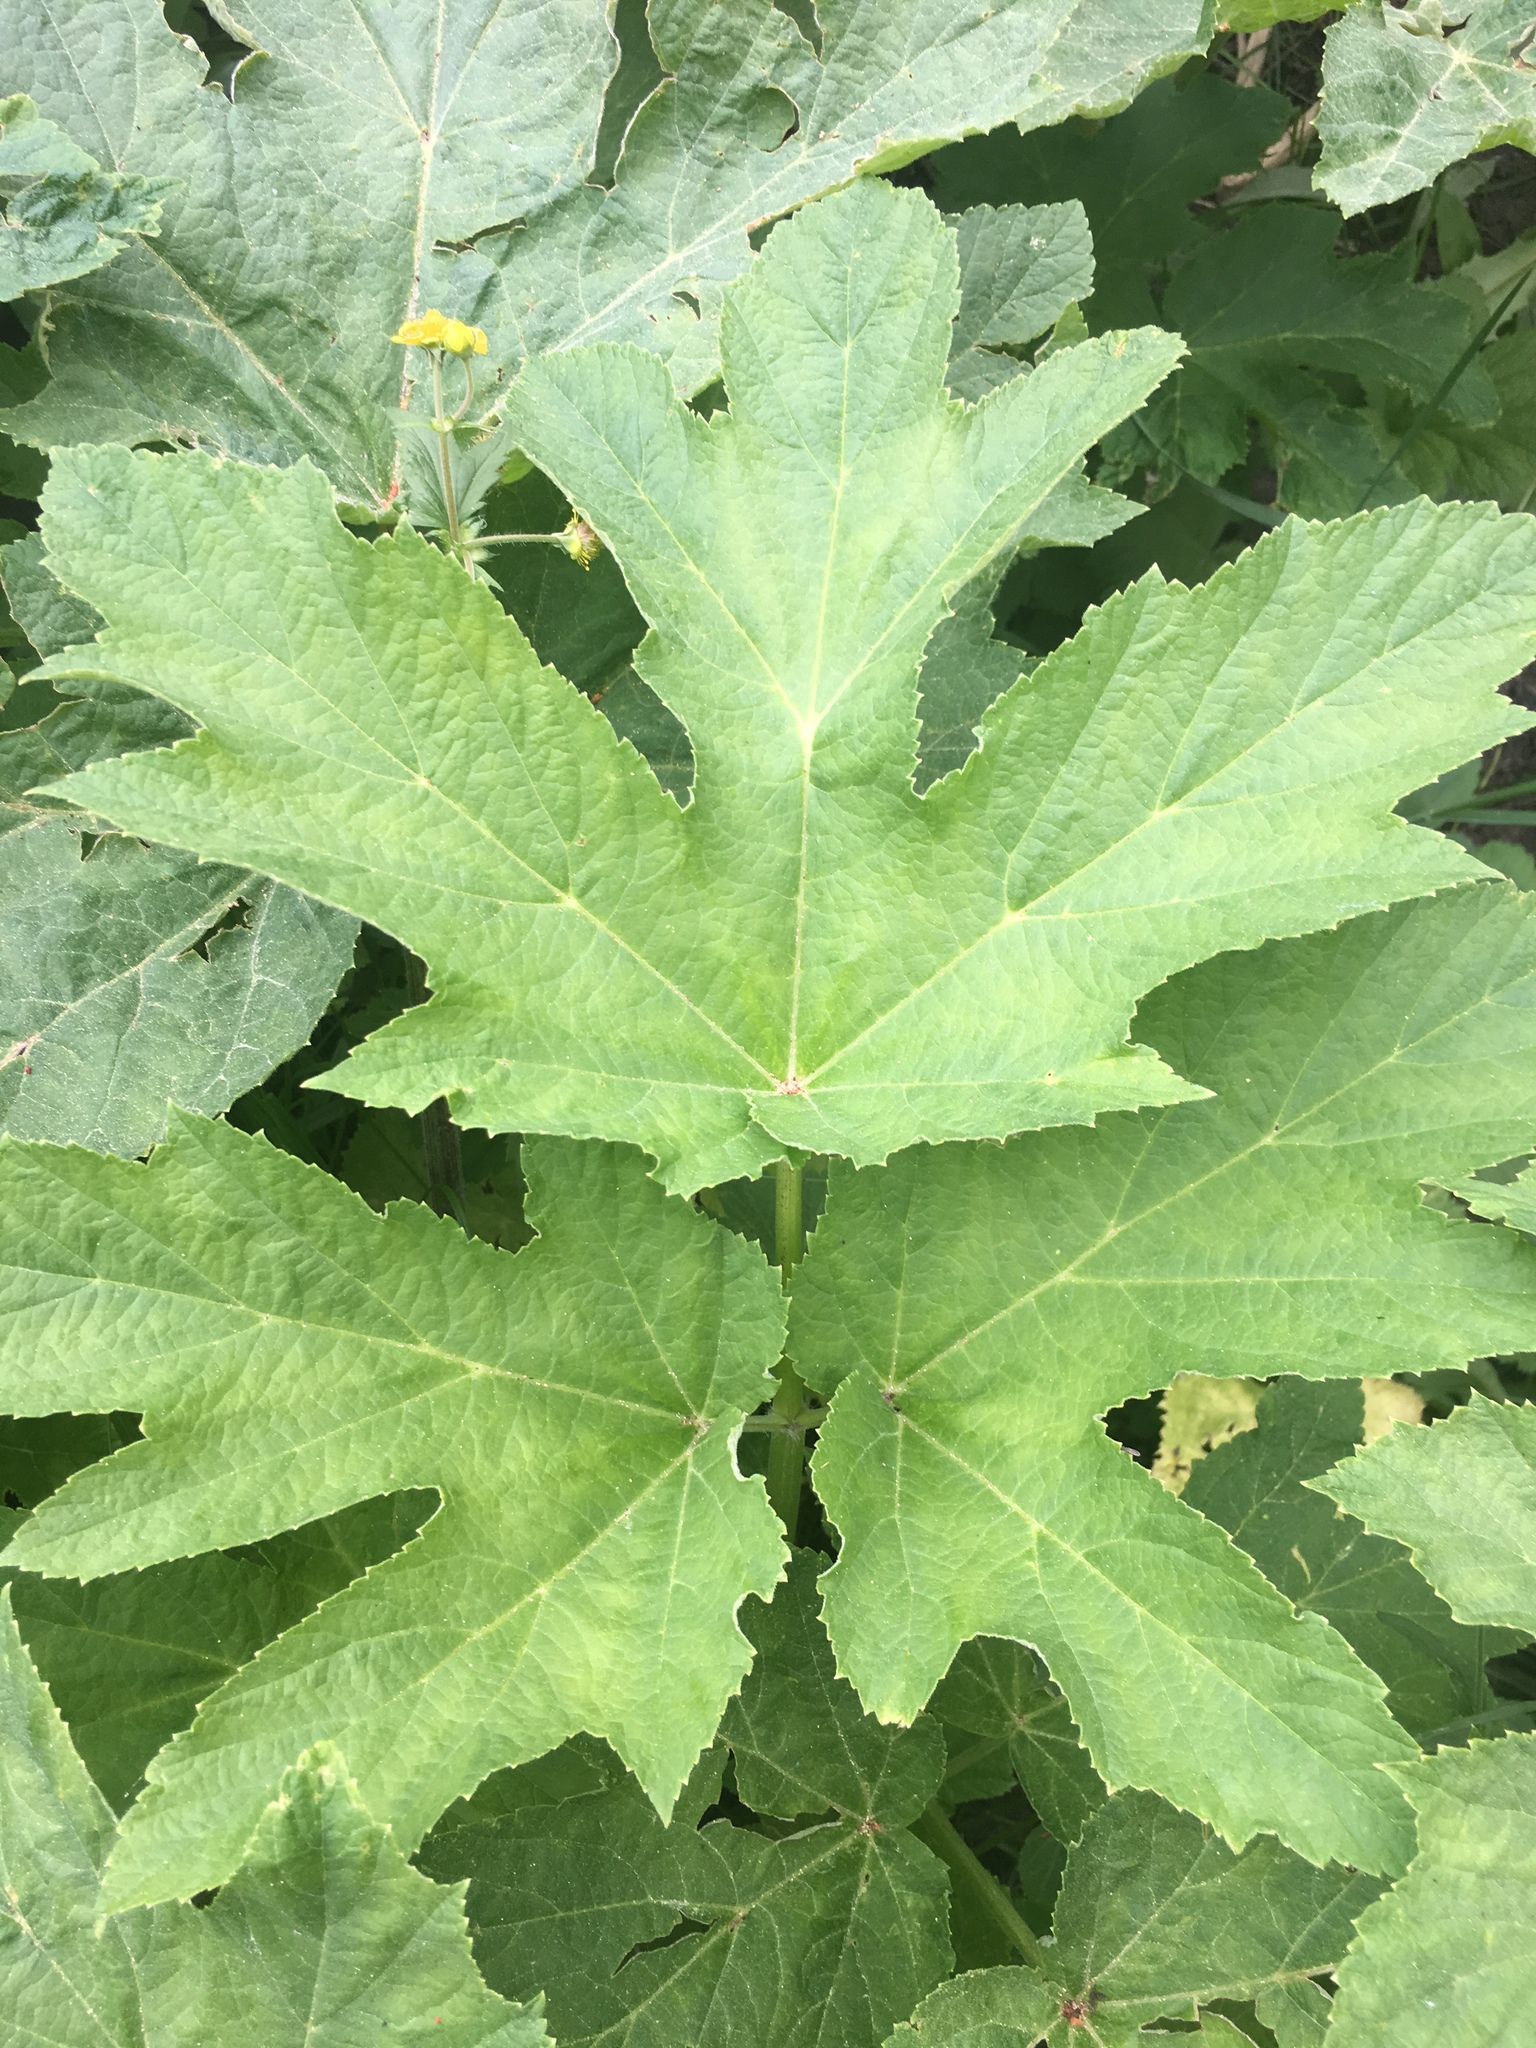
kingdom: Plantae
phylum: Tracheophyta
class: Magnoliopsida
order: Apiales
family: Apiaceae
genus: Heracleum
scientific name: Heracleum maximum
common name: American cow parsnip
